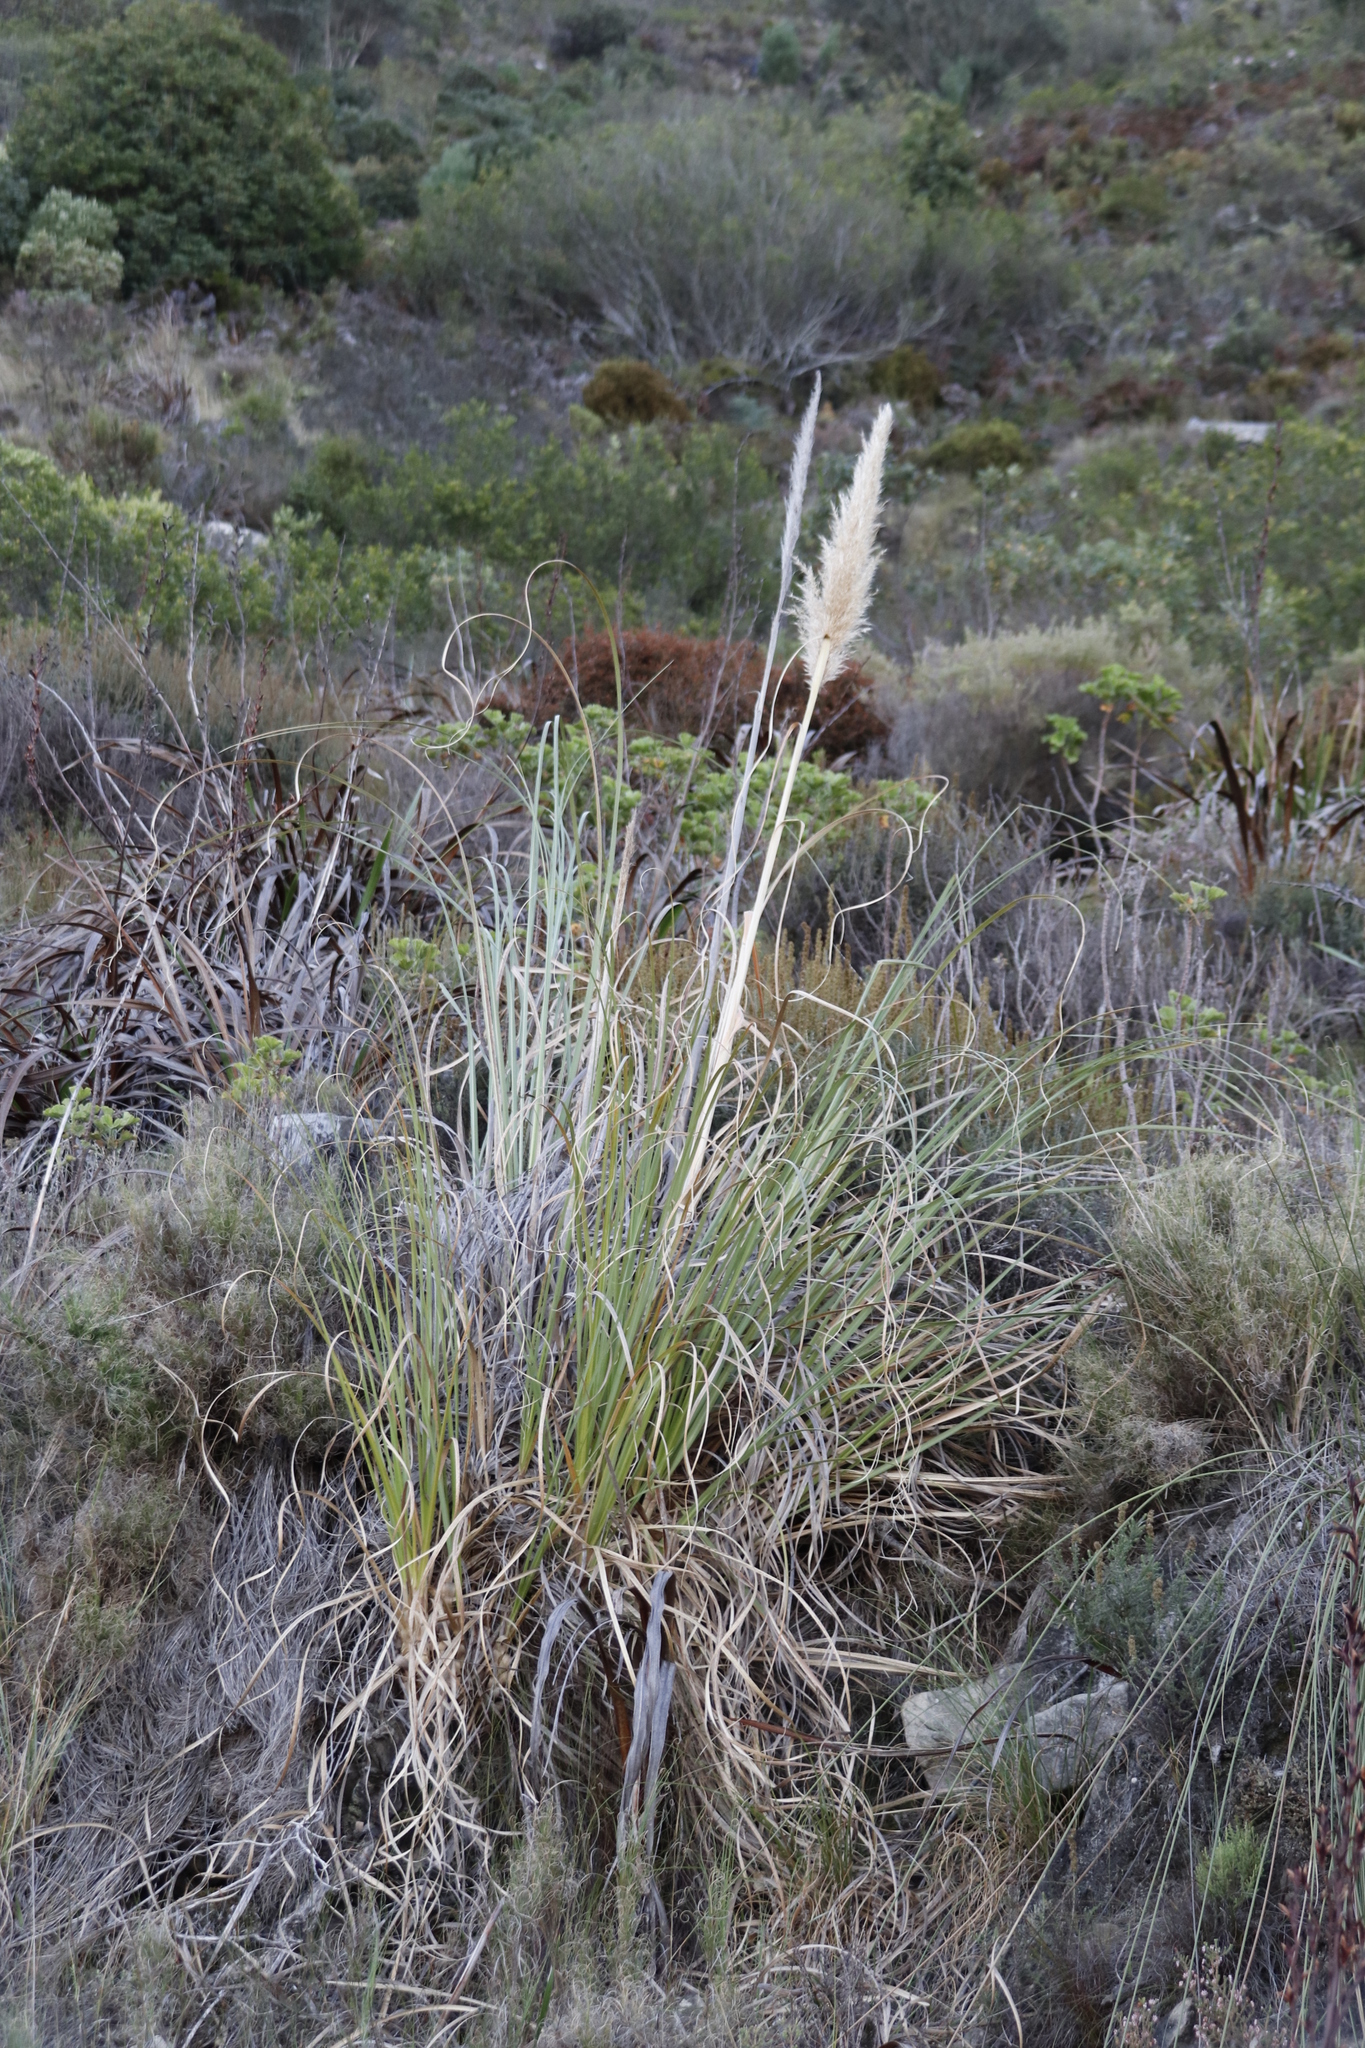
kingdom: Plantae
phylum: Tracheophyta
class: Liliopsida
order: Poales
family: Poaceae
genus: Cortaderia
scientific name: Cortaderia selloana
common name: Uruguayan pampas grass
